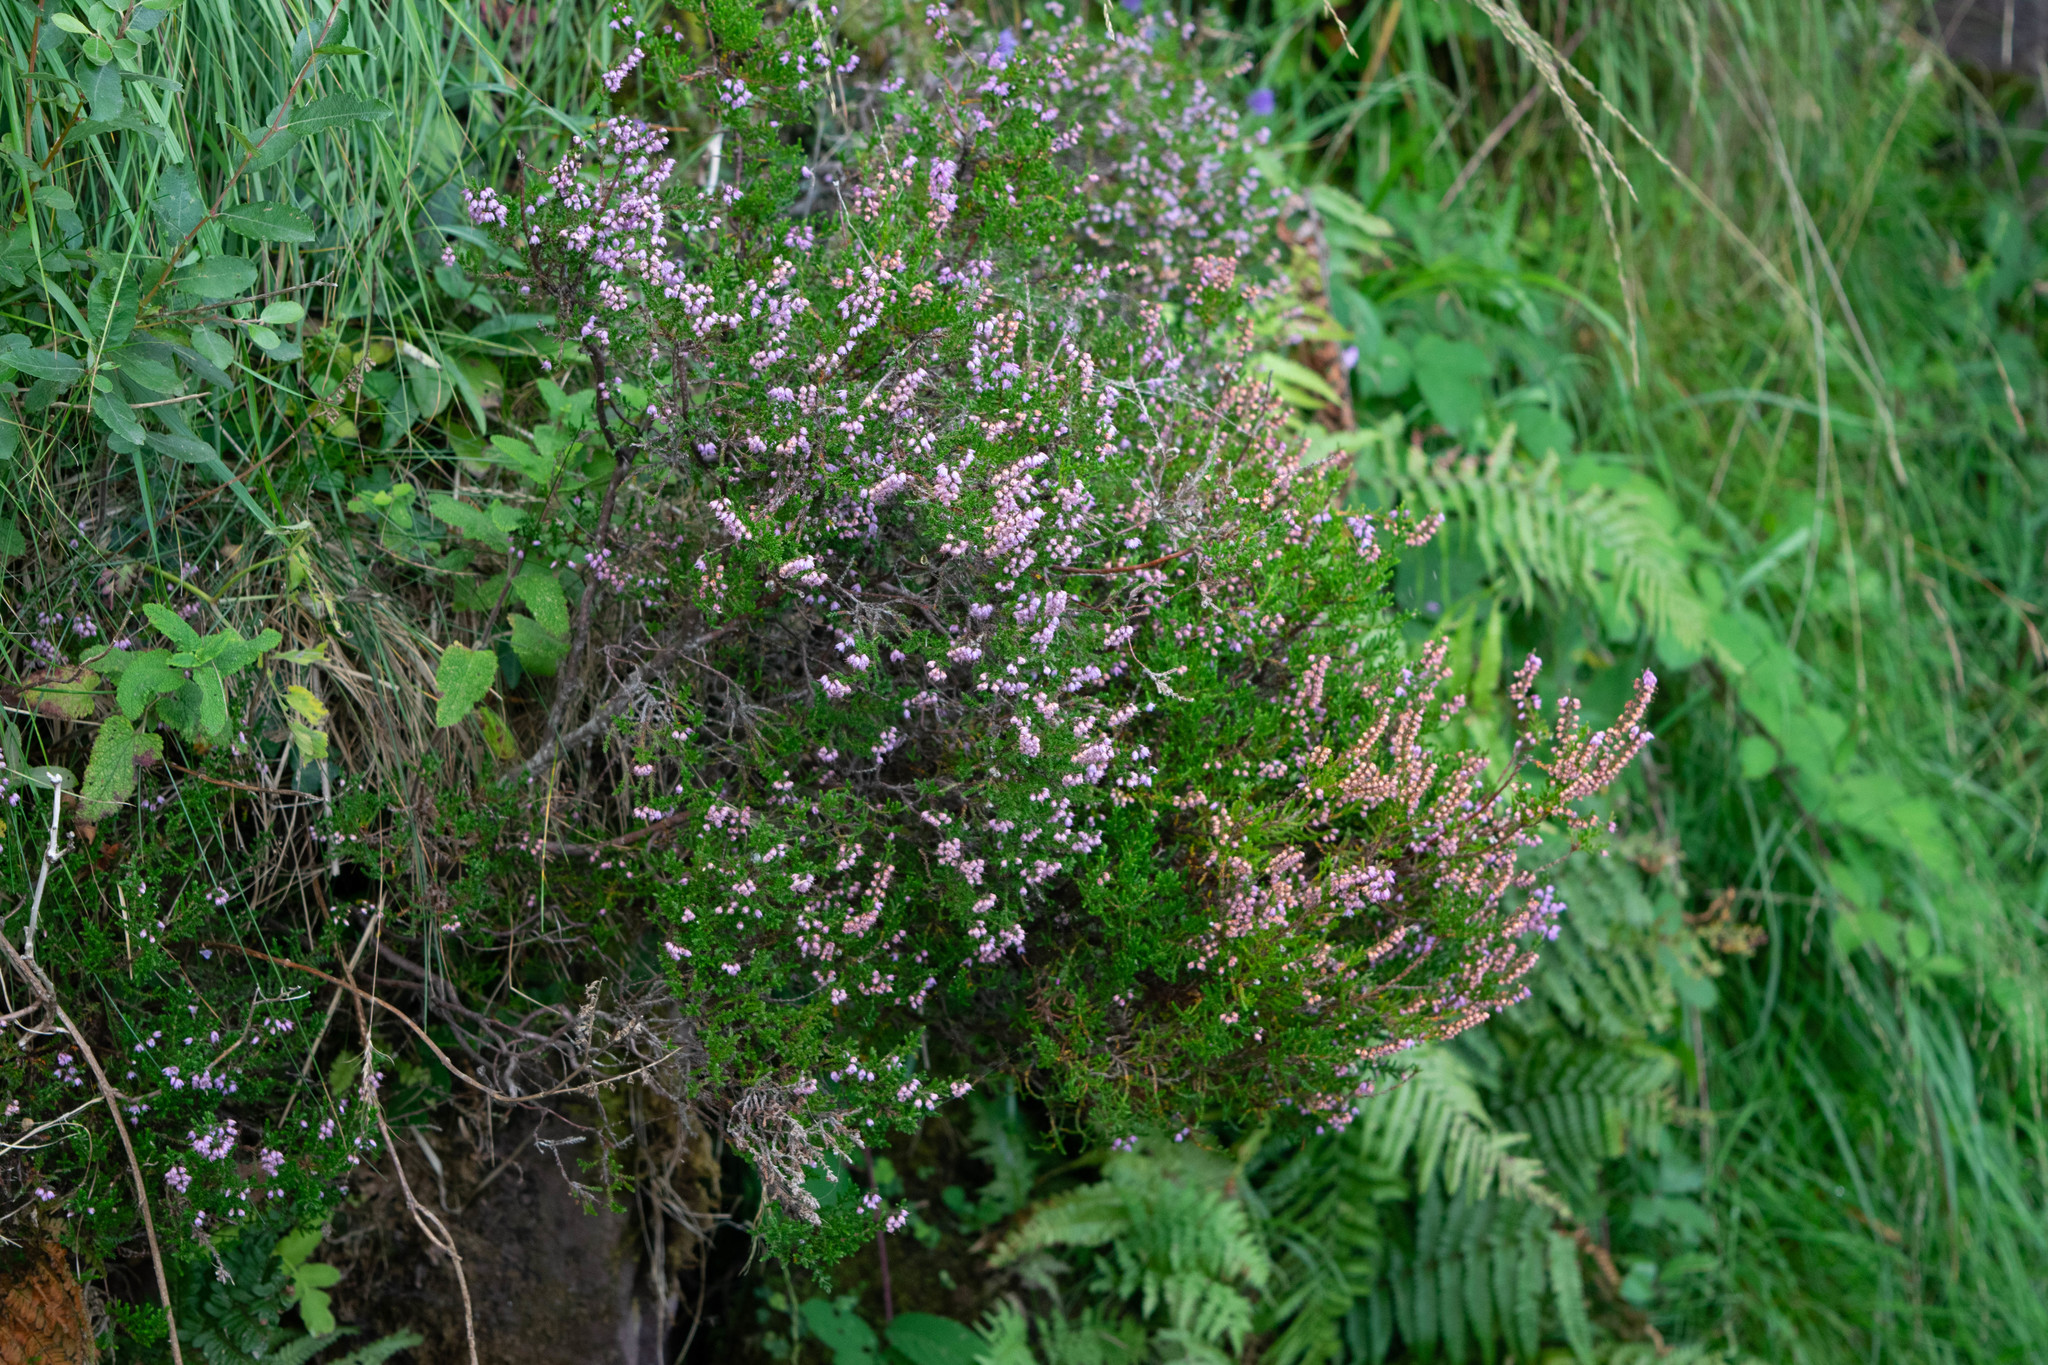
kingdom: Plantae
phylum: Tracheophyta
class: Magnoliopsida
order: Ericales
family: Ericaceae
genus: Calluna
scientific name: Calluna vulgaris
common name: Heather
